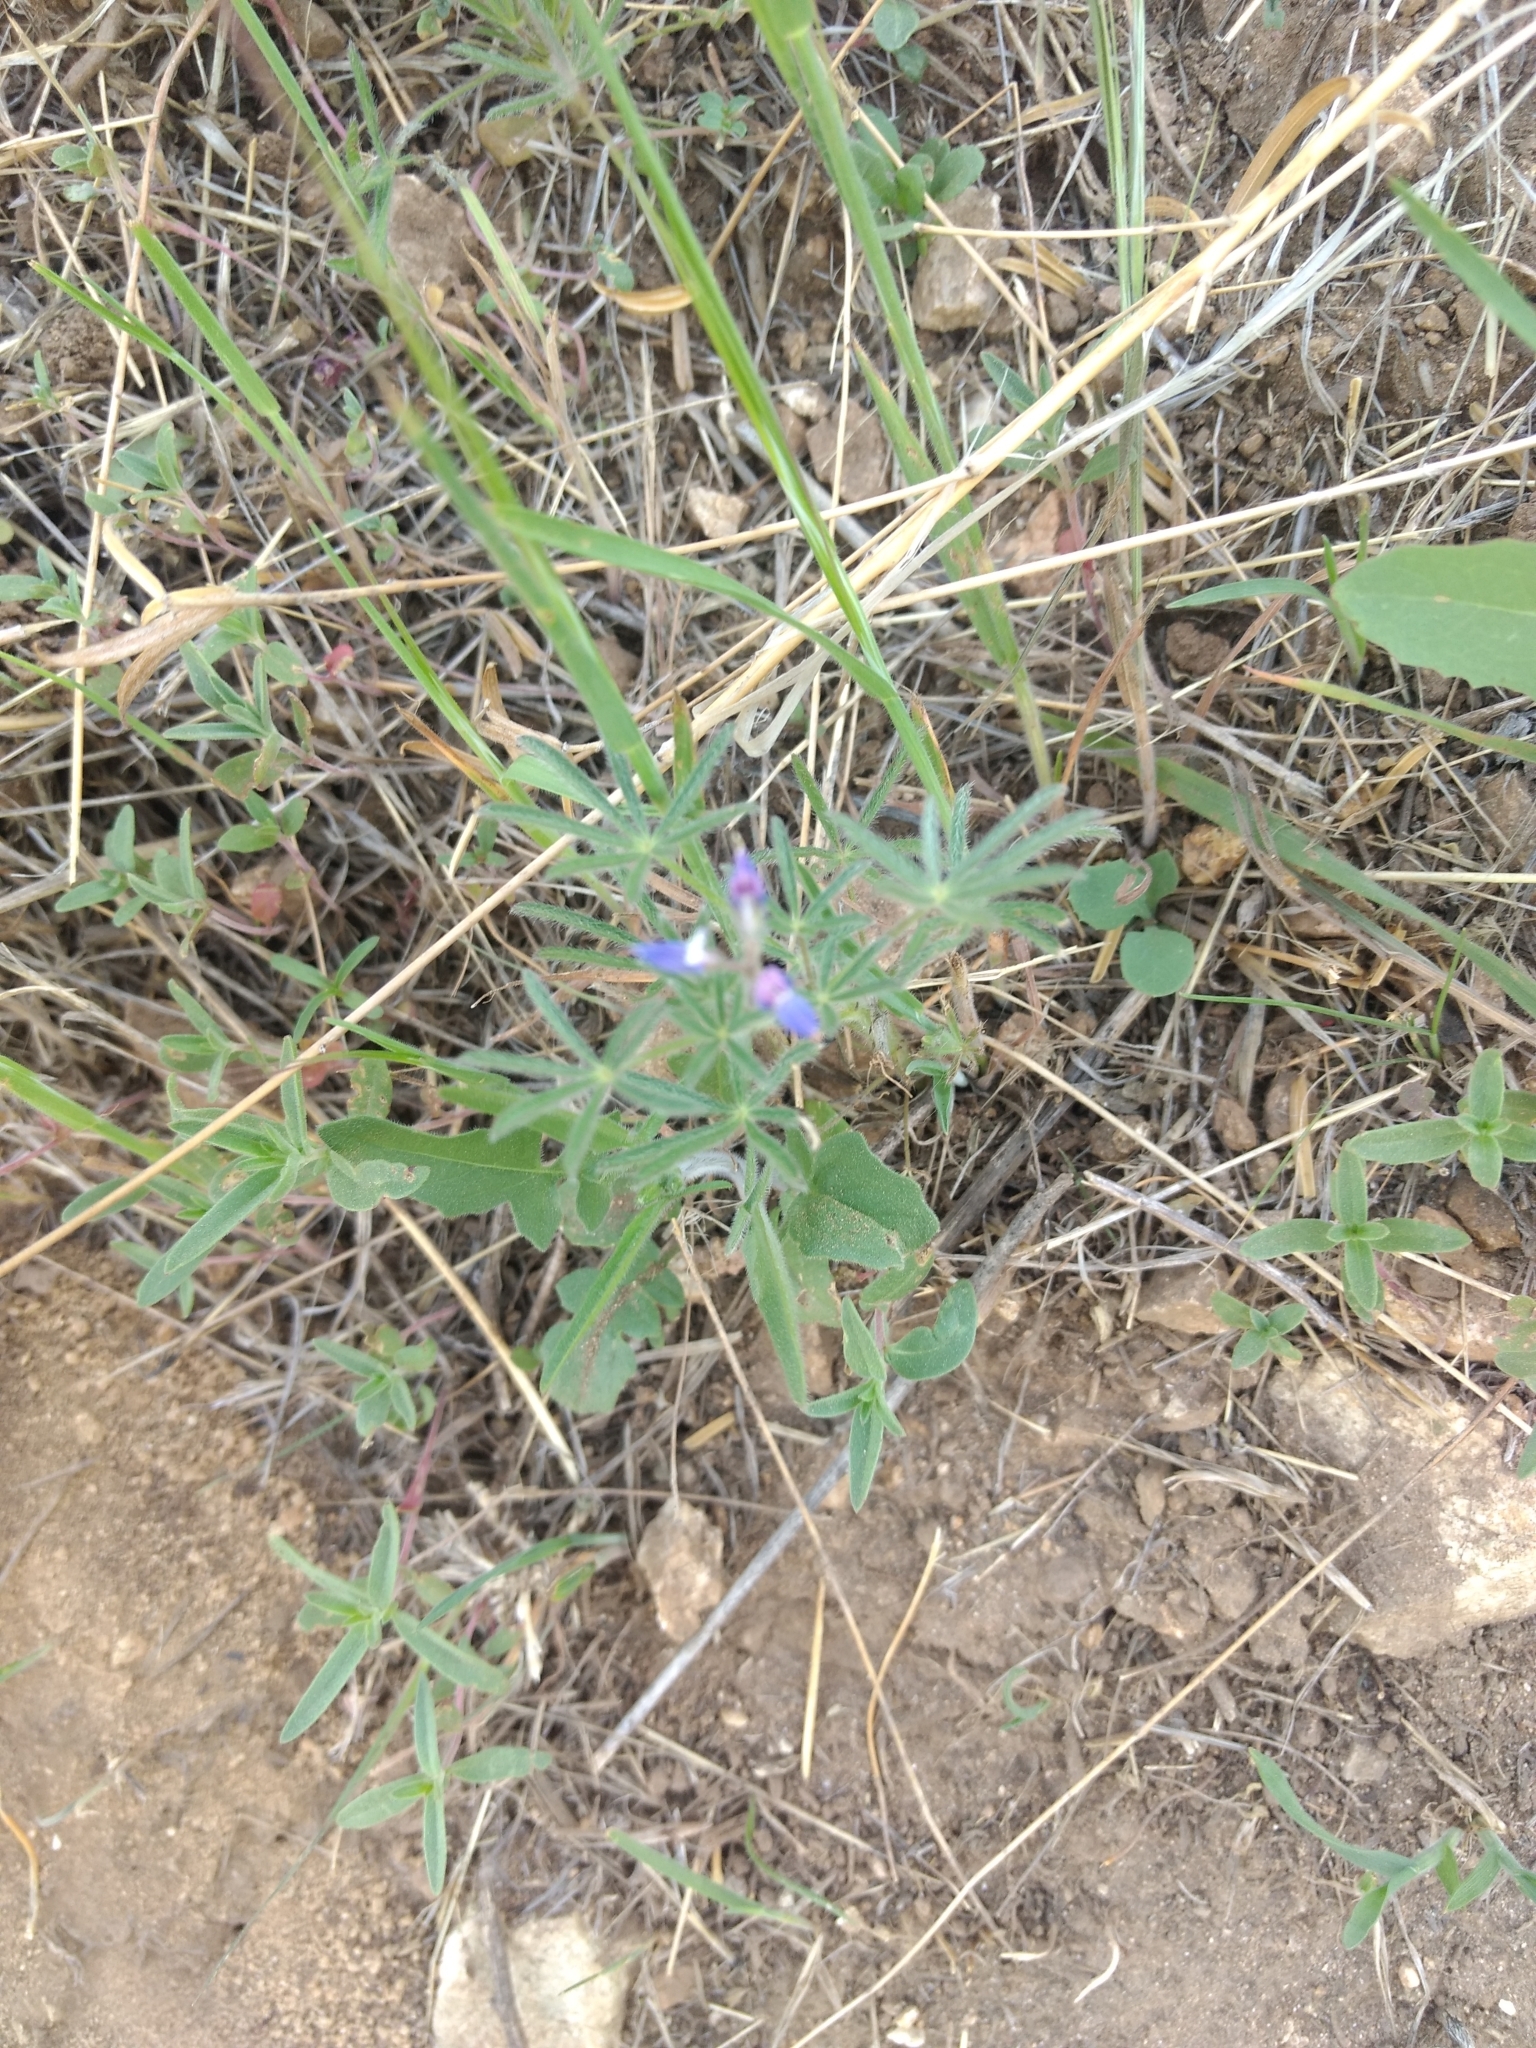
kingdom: Plantae
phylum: Tracheophyta
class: Magnoliopsida
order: Fabales
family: Fabaceae
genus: Lupinus
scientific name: Lupinus bicolor
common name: Miniature lupine
